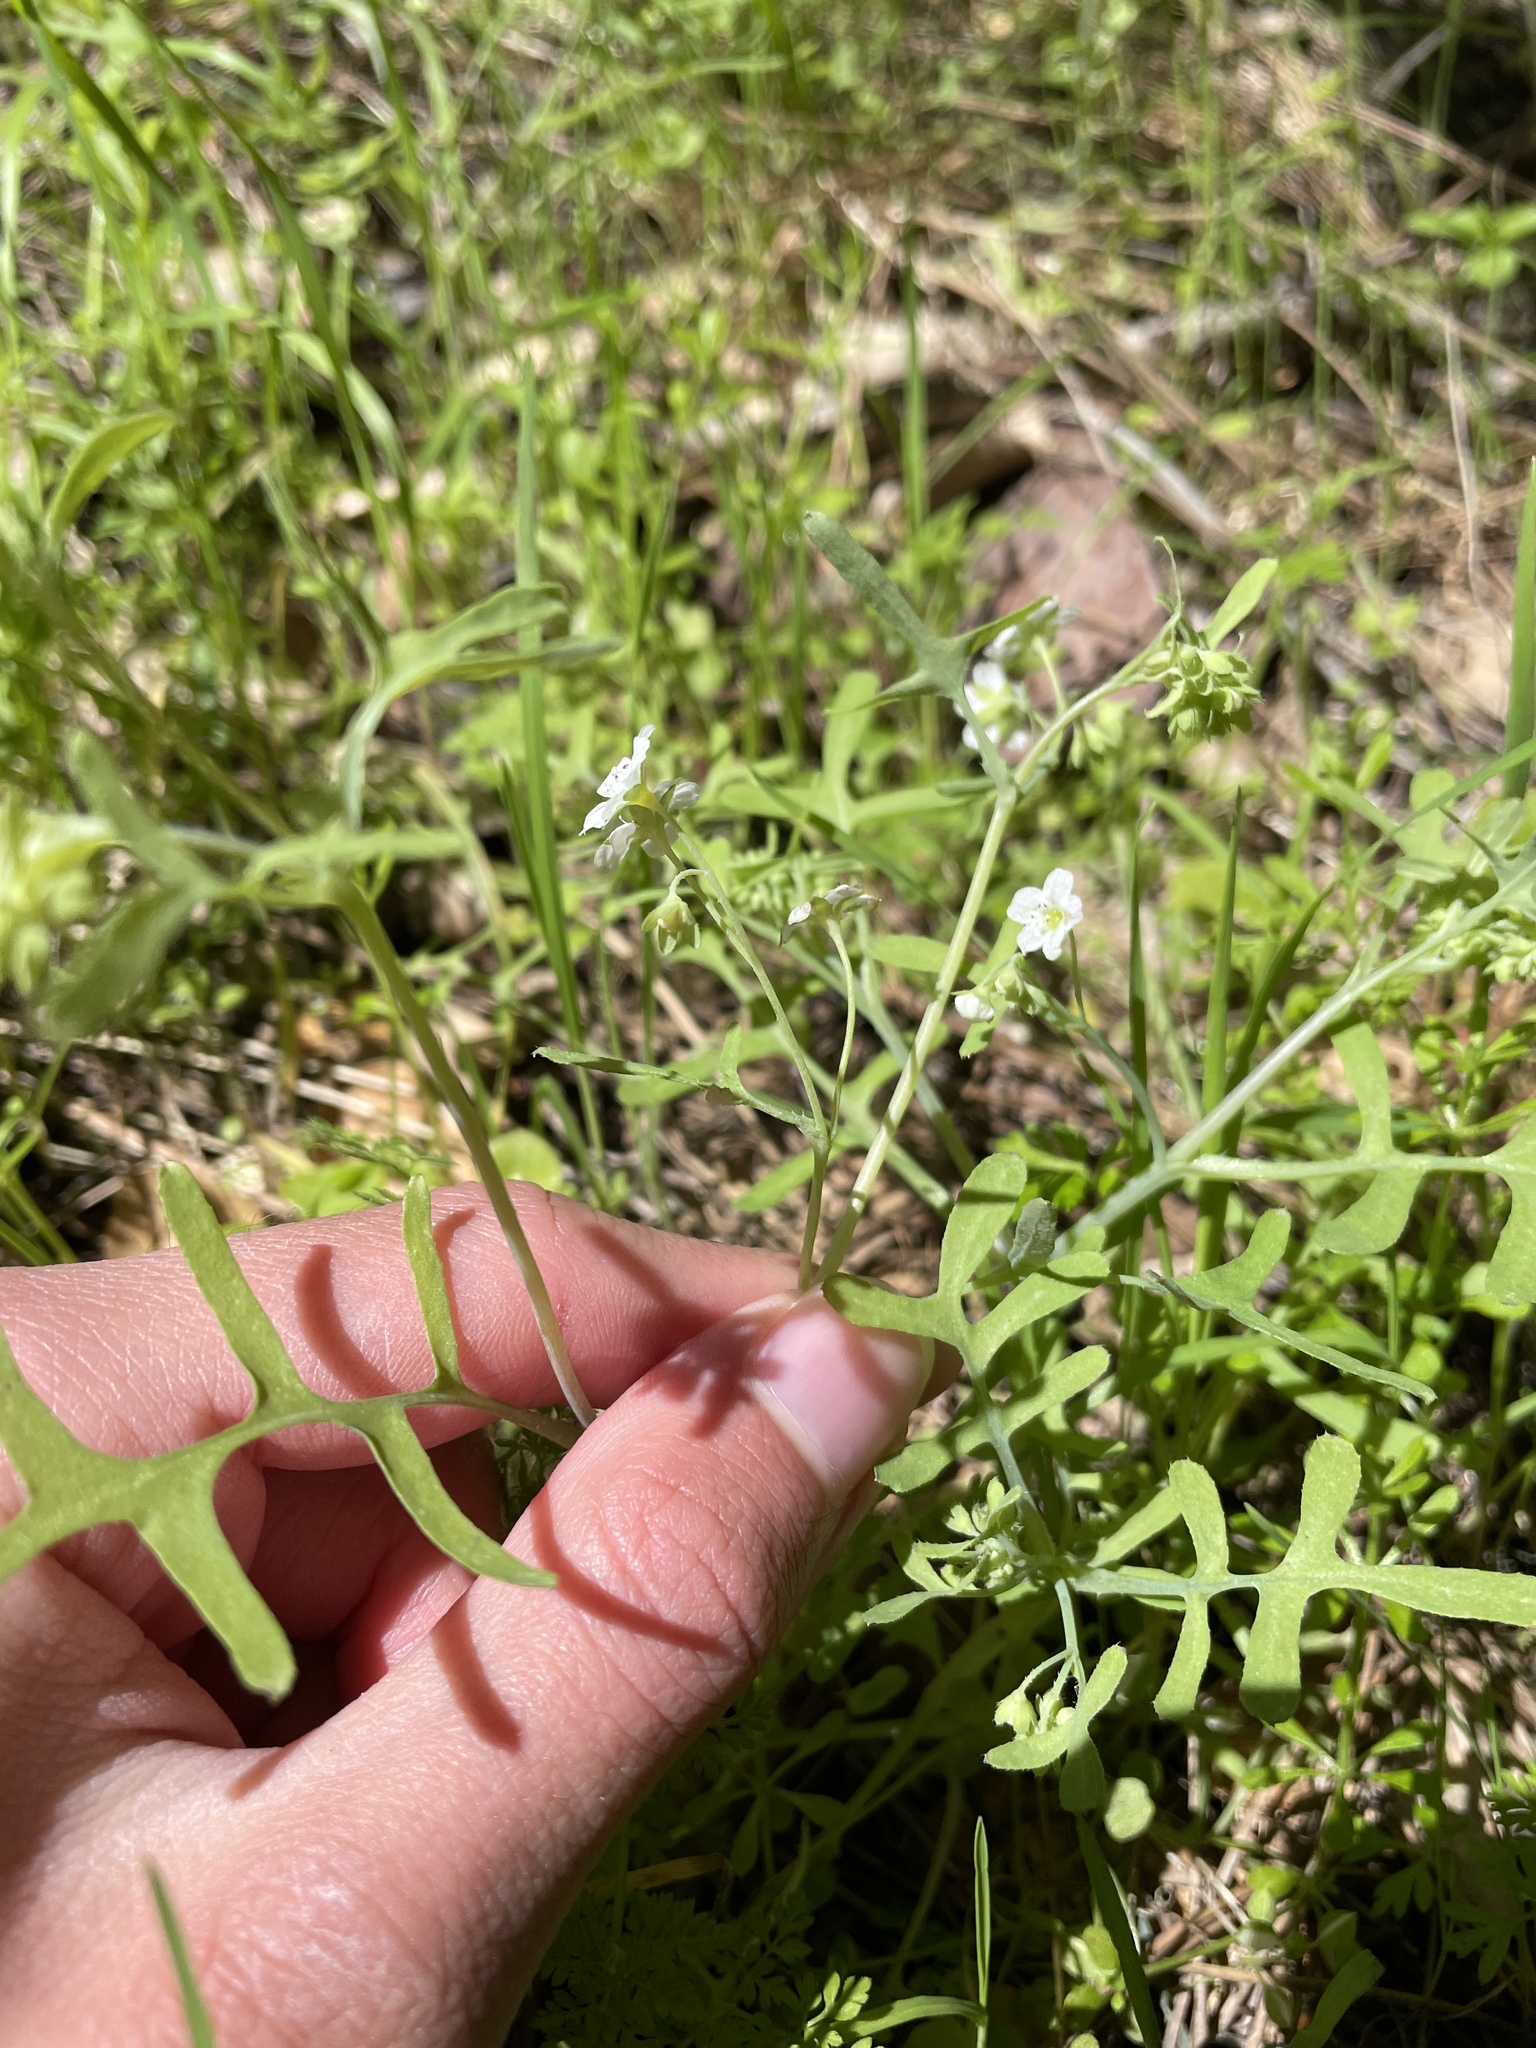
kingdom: Plantae
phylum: Tracheophyta
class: Magnoliopsida
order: Boraginales
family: Hydrophyllaceae
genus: Pholistoma
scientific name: Pholistoma membranaceum
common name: White fiesta-flower
